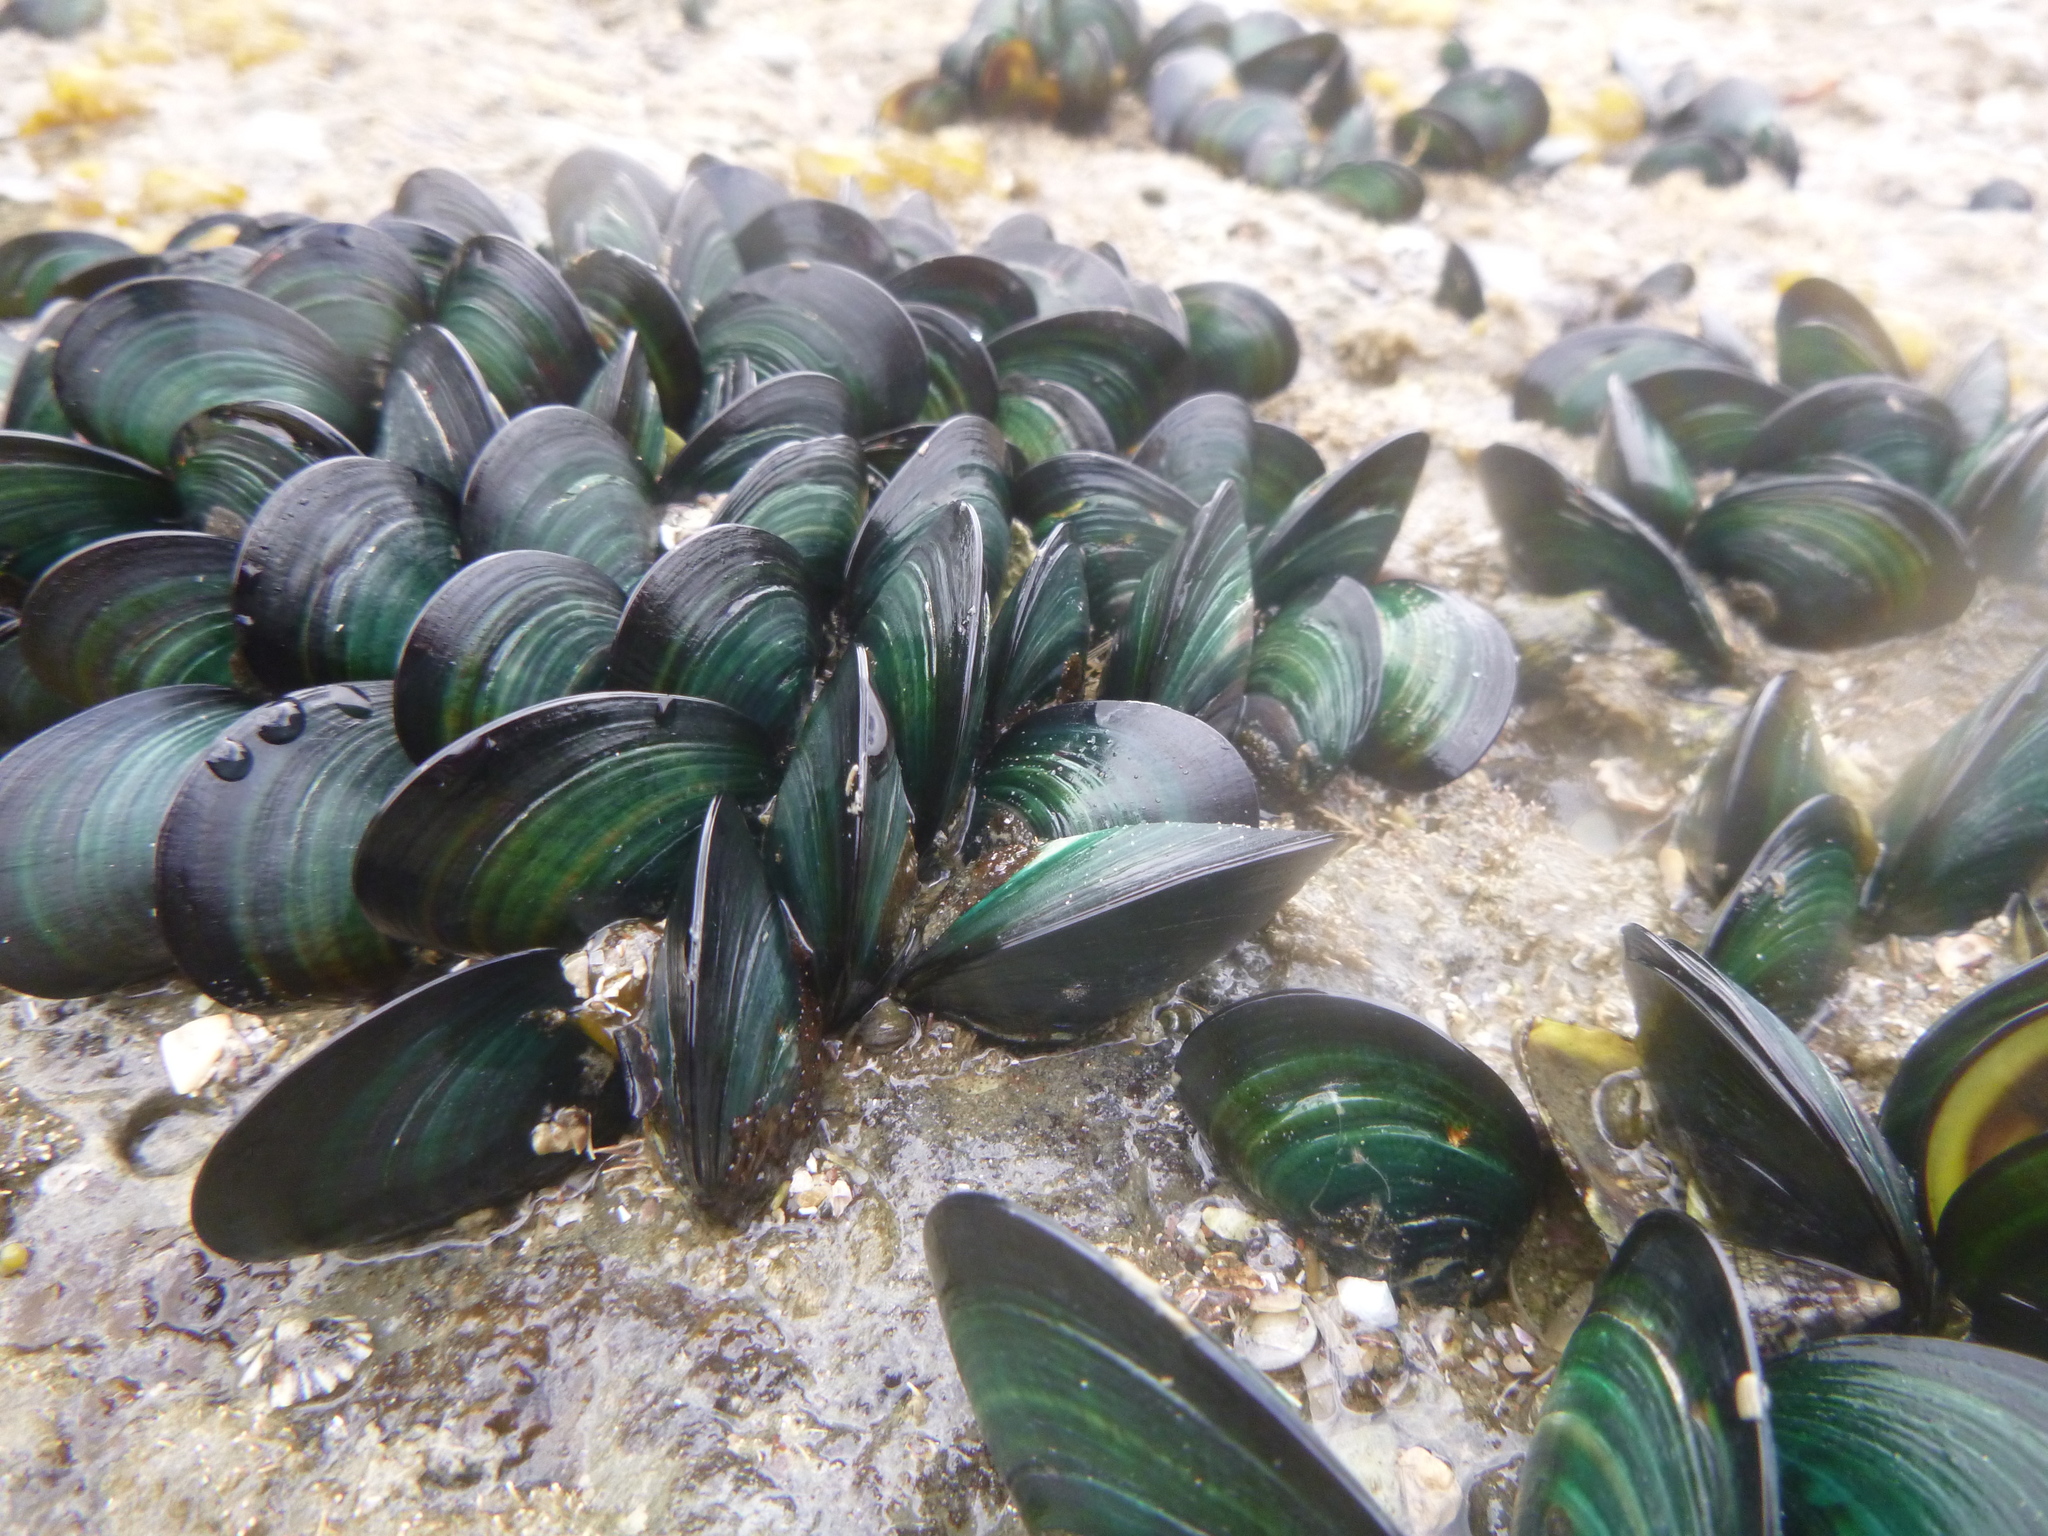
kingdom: Animalia
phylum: Mollusca
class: Bivalvia
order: Mytilida
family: Mytilidae
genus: Perna
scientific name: Perna canaliculus
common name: New zealand greenshelltm
